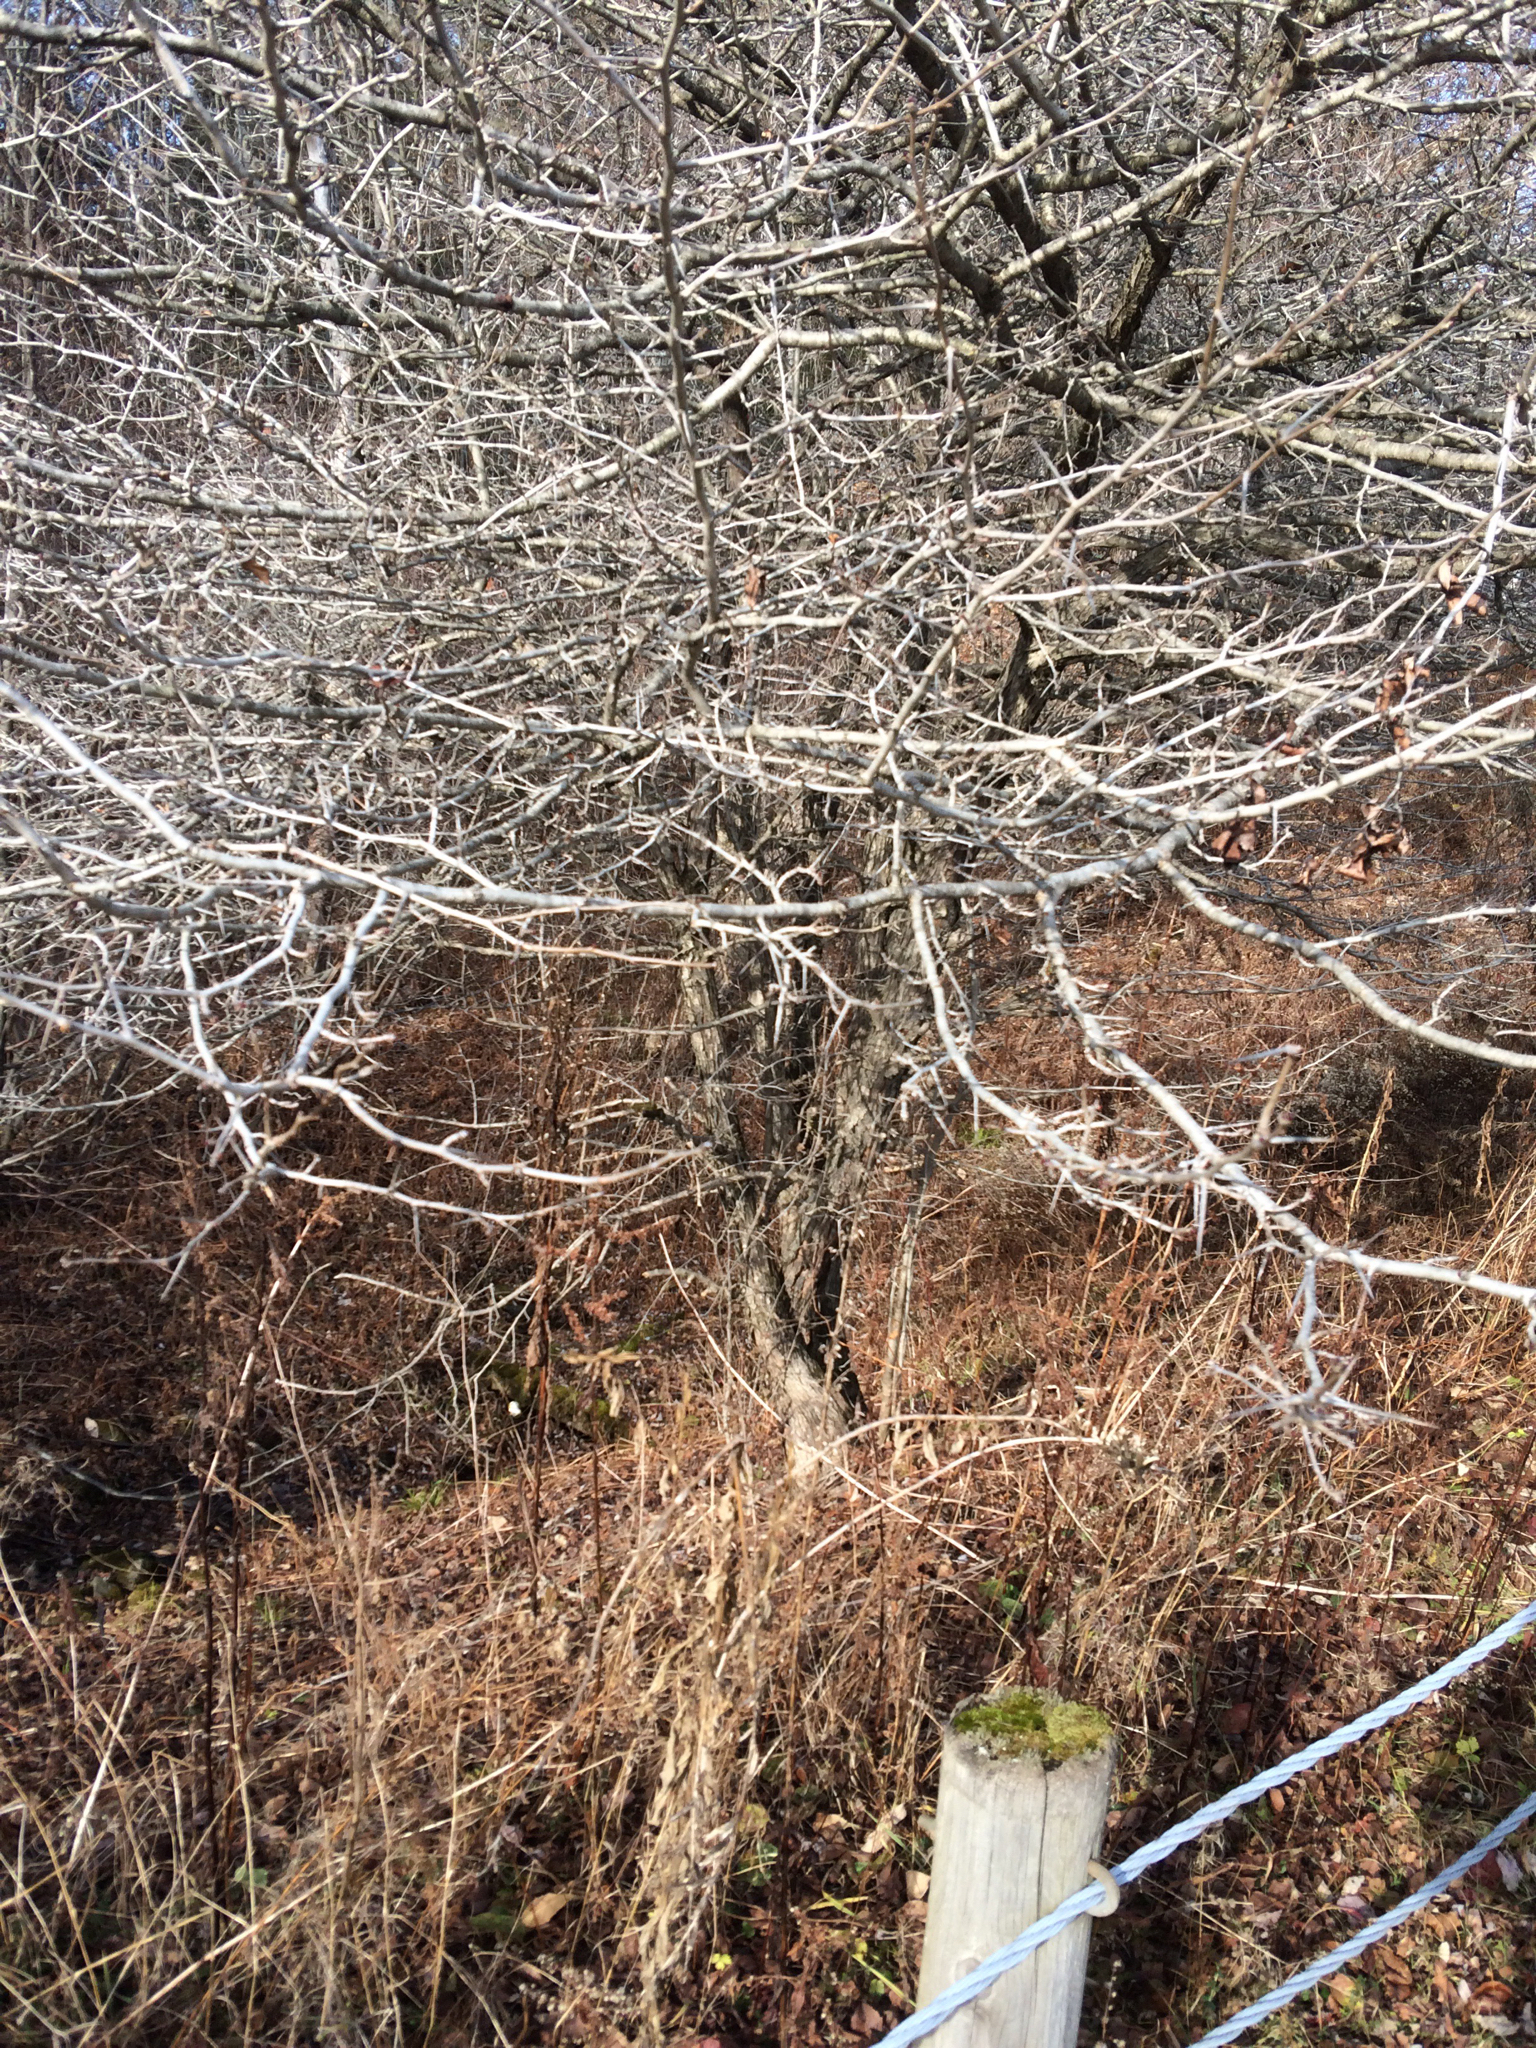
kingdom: Plantae
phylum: Tracheophyta
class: Magnoliopsida
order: Rosales
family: Rosaceae
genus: Crataegus
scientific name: Crataegus
